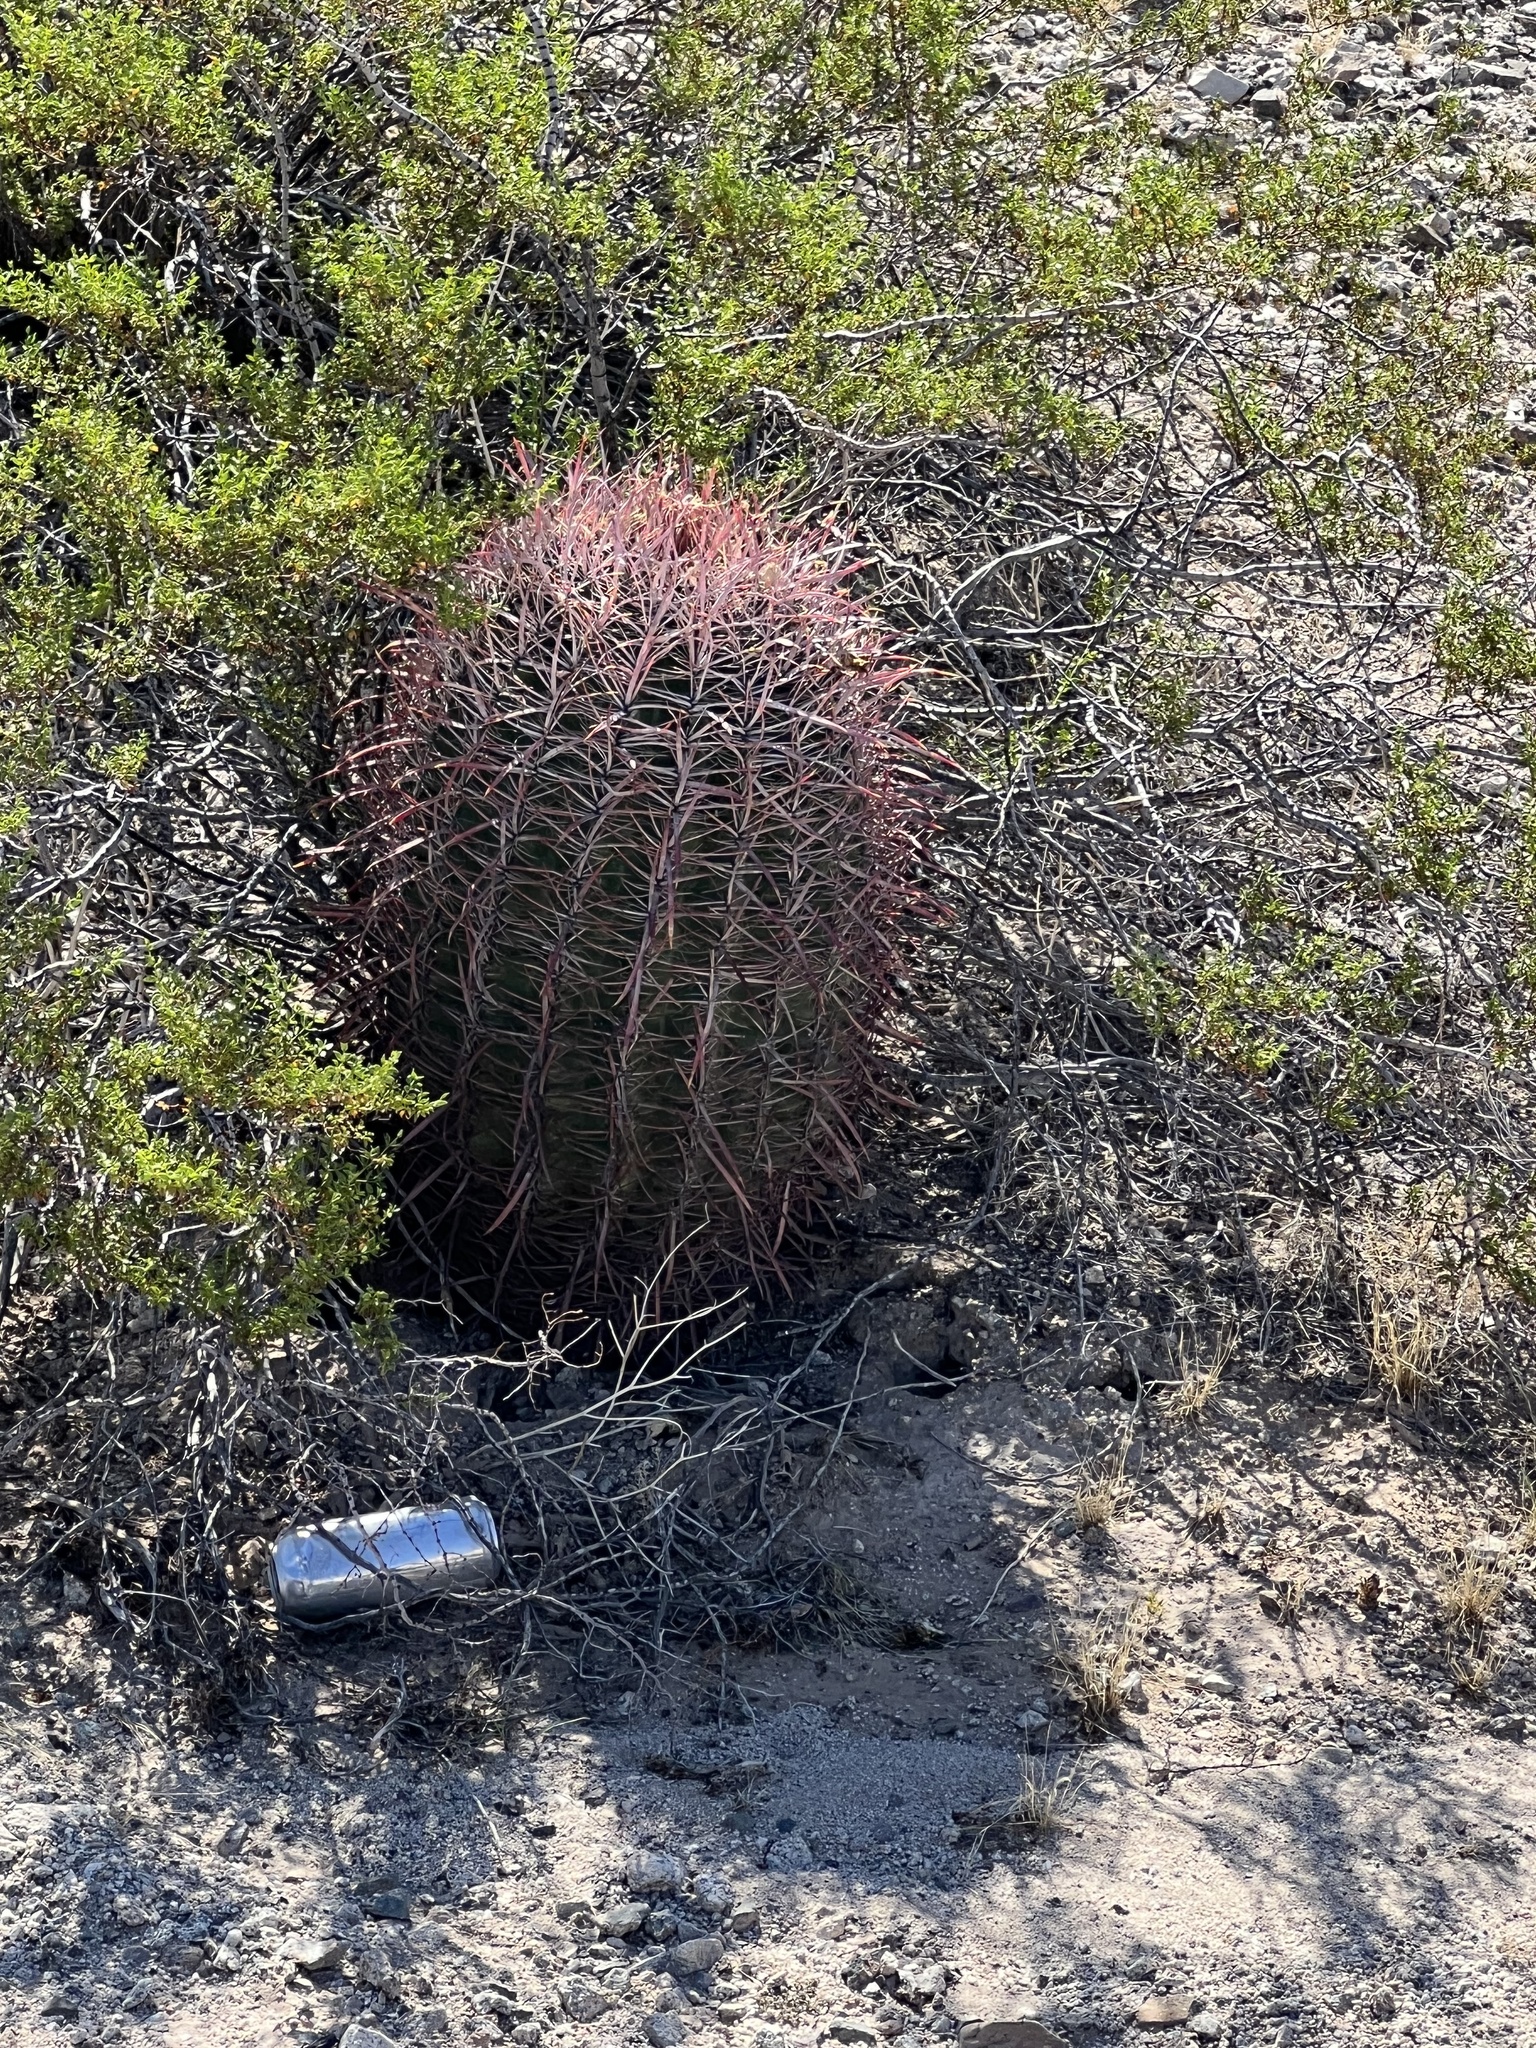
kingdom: Plantae
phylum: Tracheophyta
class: Magnoliopsida
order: Caryophyllales
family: Cactaceae
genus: Ferocactus
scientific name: Ferocactus cylindraceus
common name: California barrel cactus
